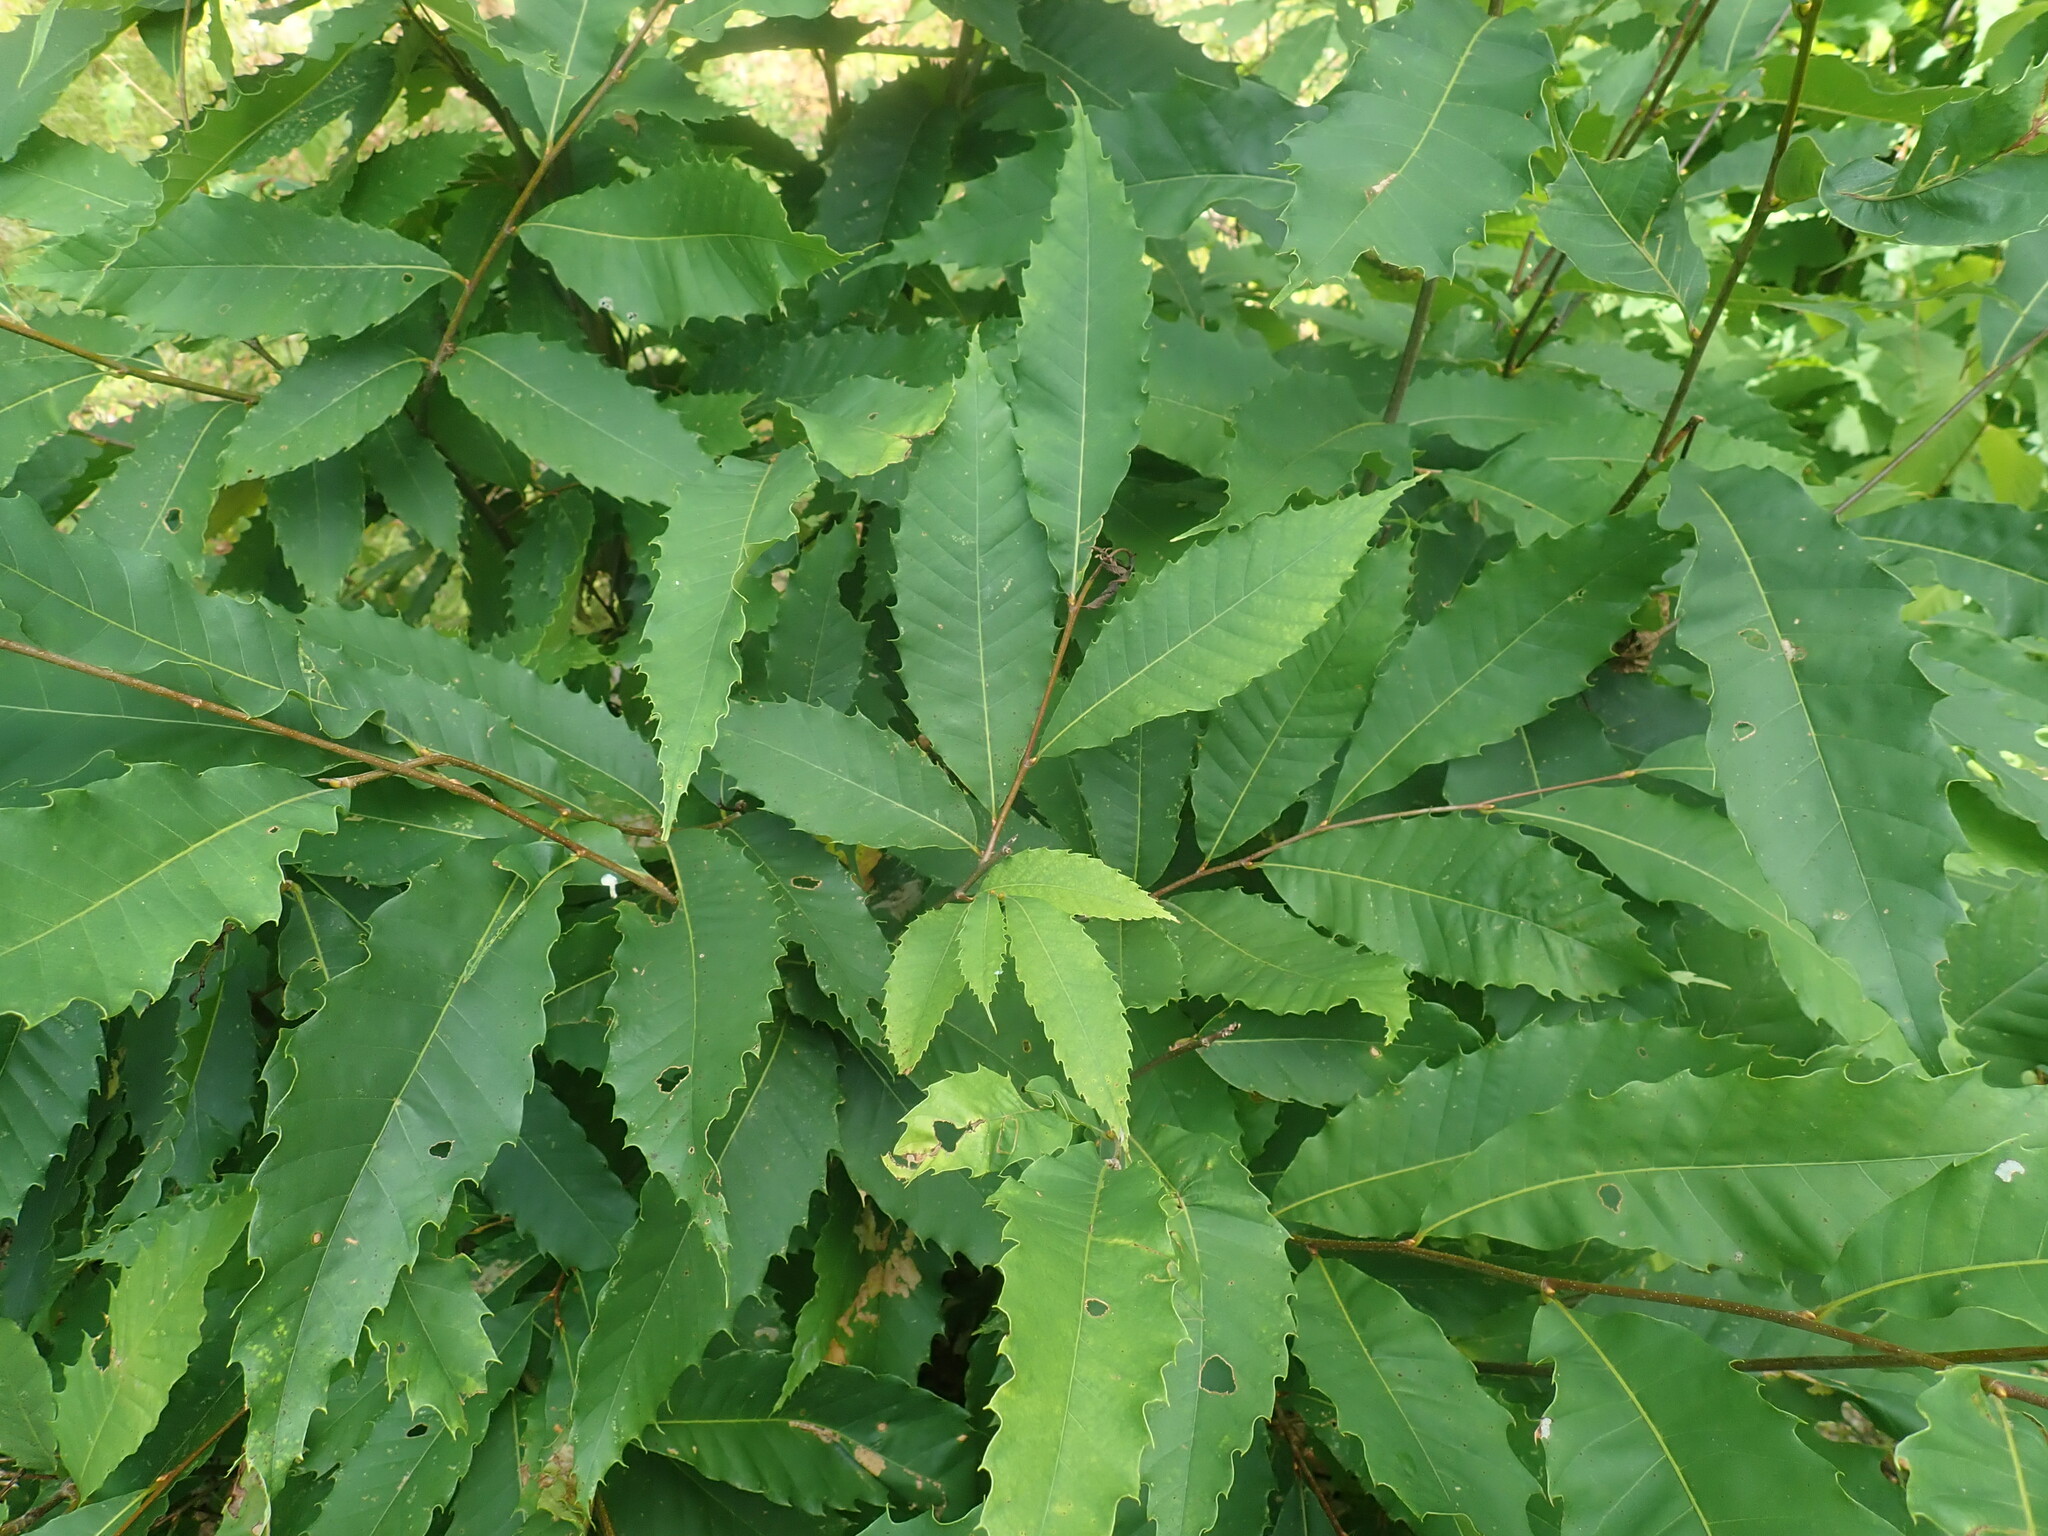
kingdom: Plantae
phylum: Tracheophyta
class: Magnoliopsida
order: Fagales
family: Fagaceae
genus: Castanea
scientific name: Castanea dentata
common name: American chestnut
